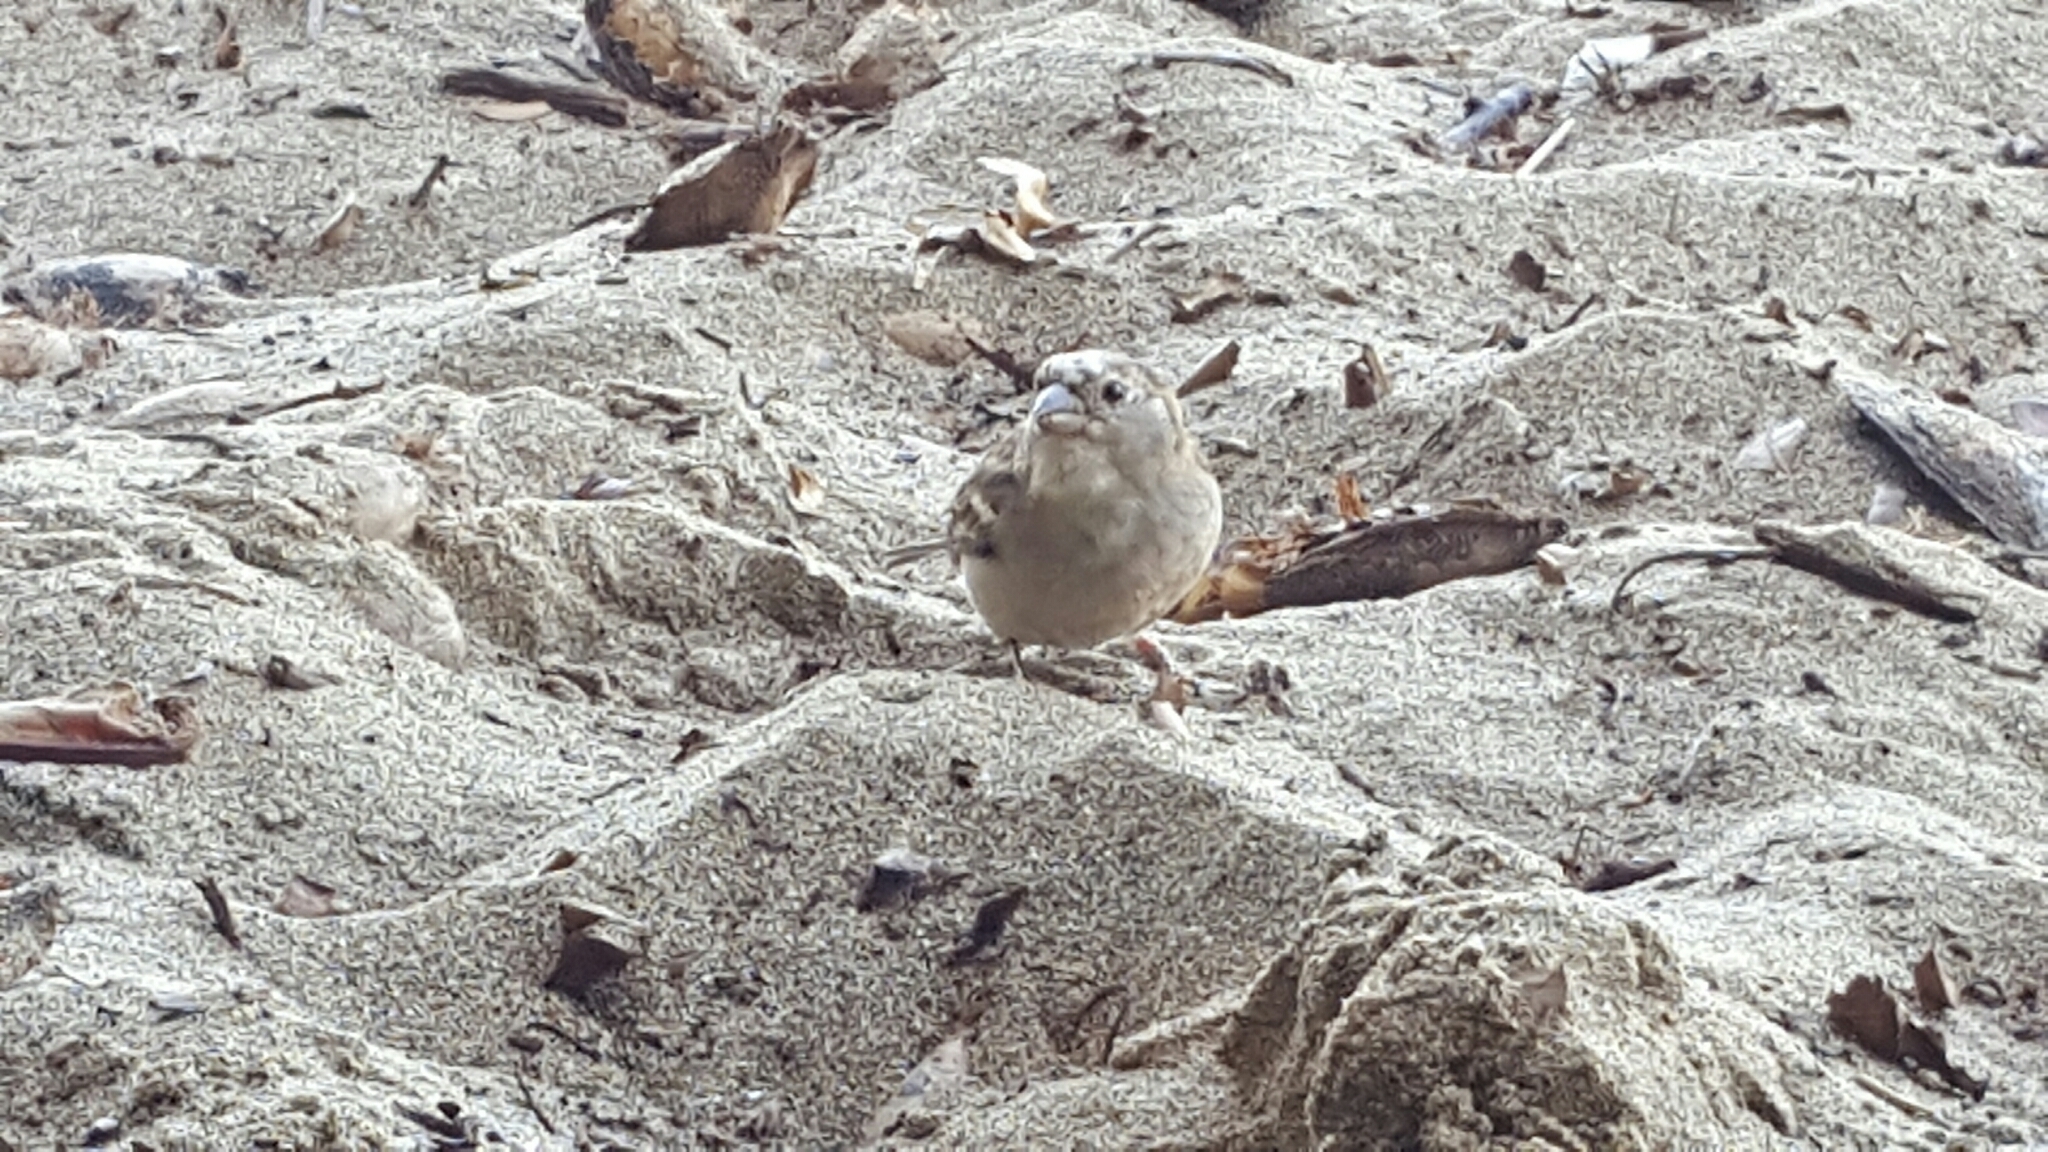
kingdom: Animalia
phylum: Chordata
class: Aves
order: Passeriformes
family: Passeridae
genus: Passer
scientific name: Passer domesticus
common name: House sparrow
